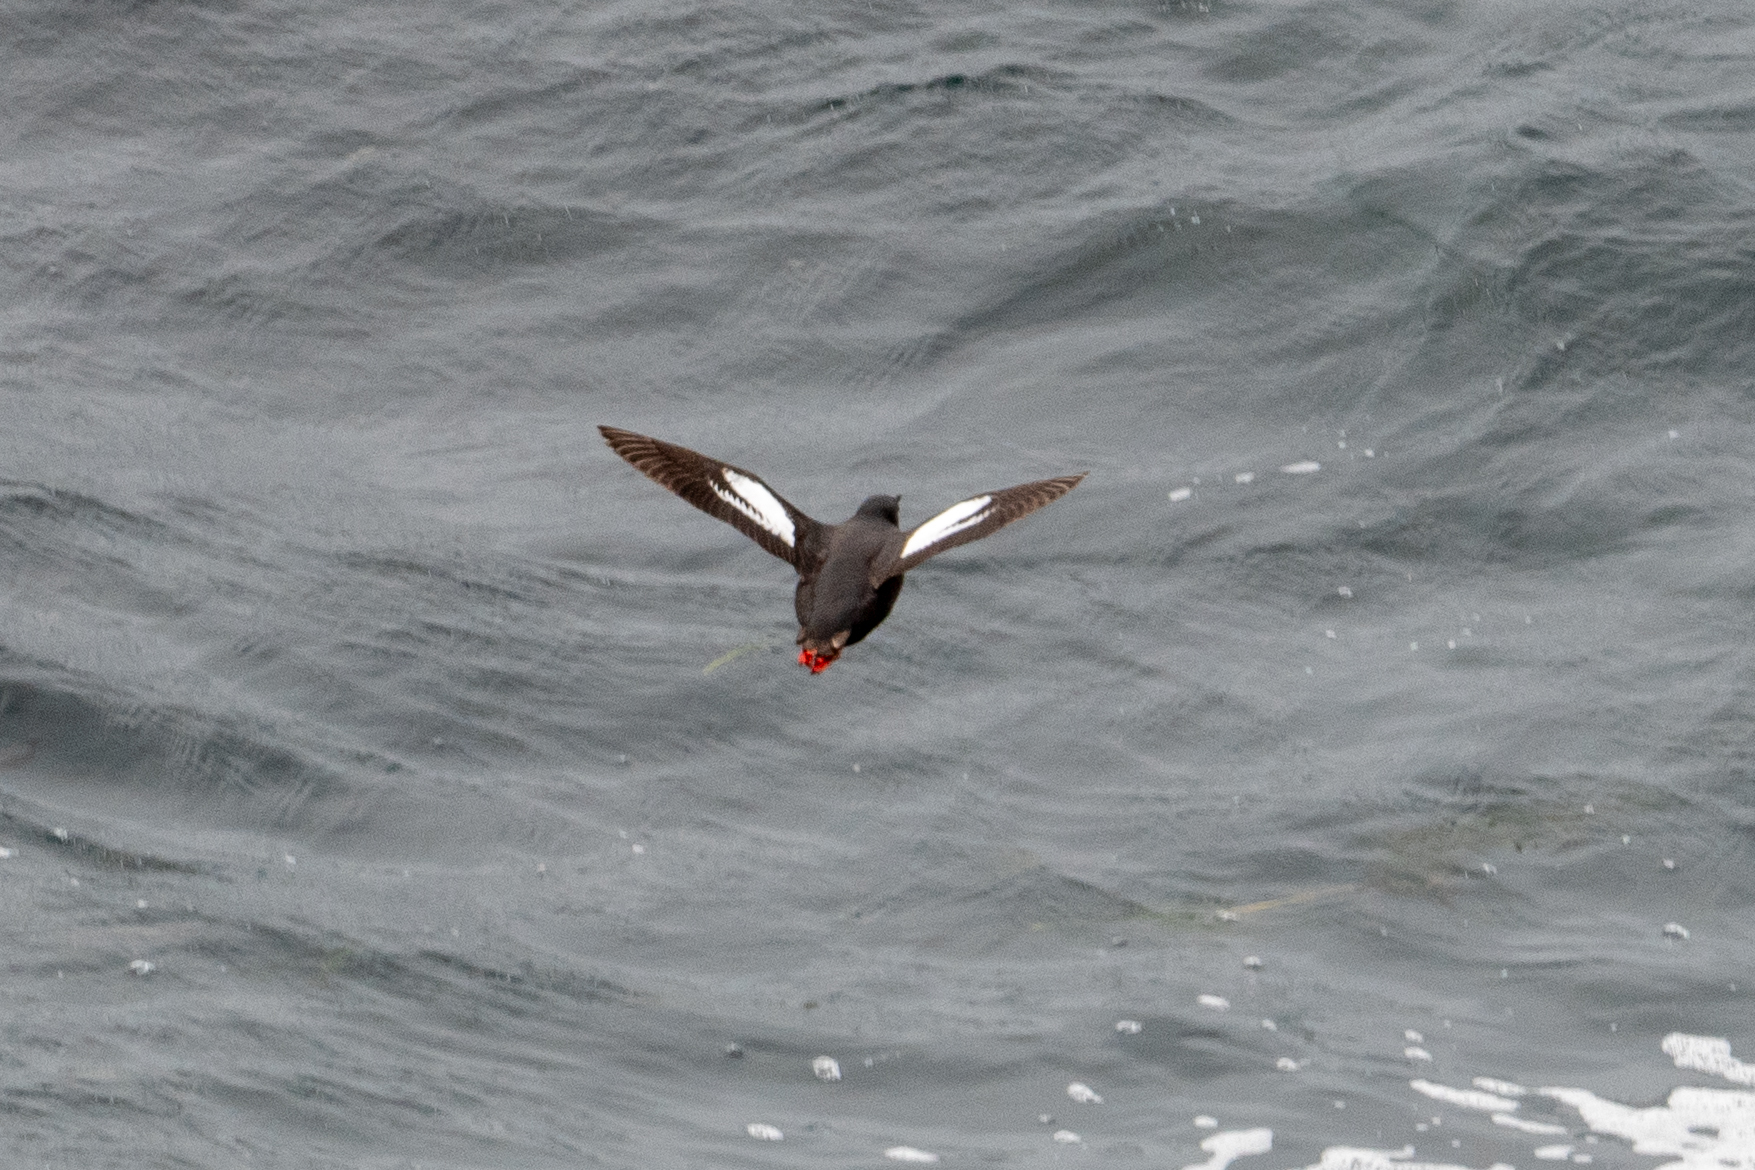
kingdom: Animalia
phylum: Chordata
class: Aves
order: Charadriiformes
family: Alcidae
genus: Cepphus
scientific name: Cepphus columba
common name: Pigeon guillemot
